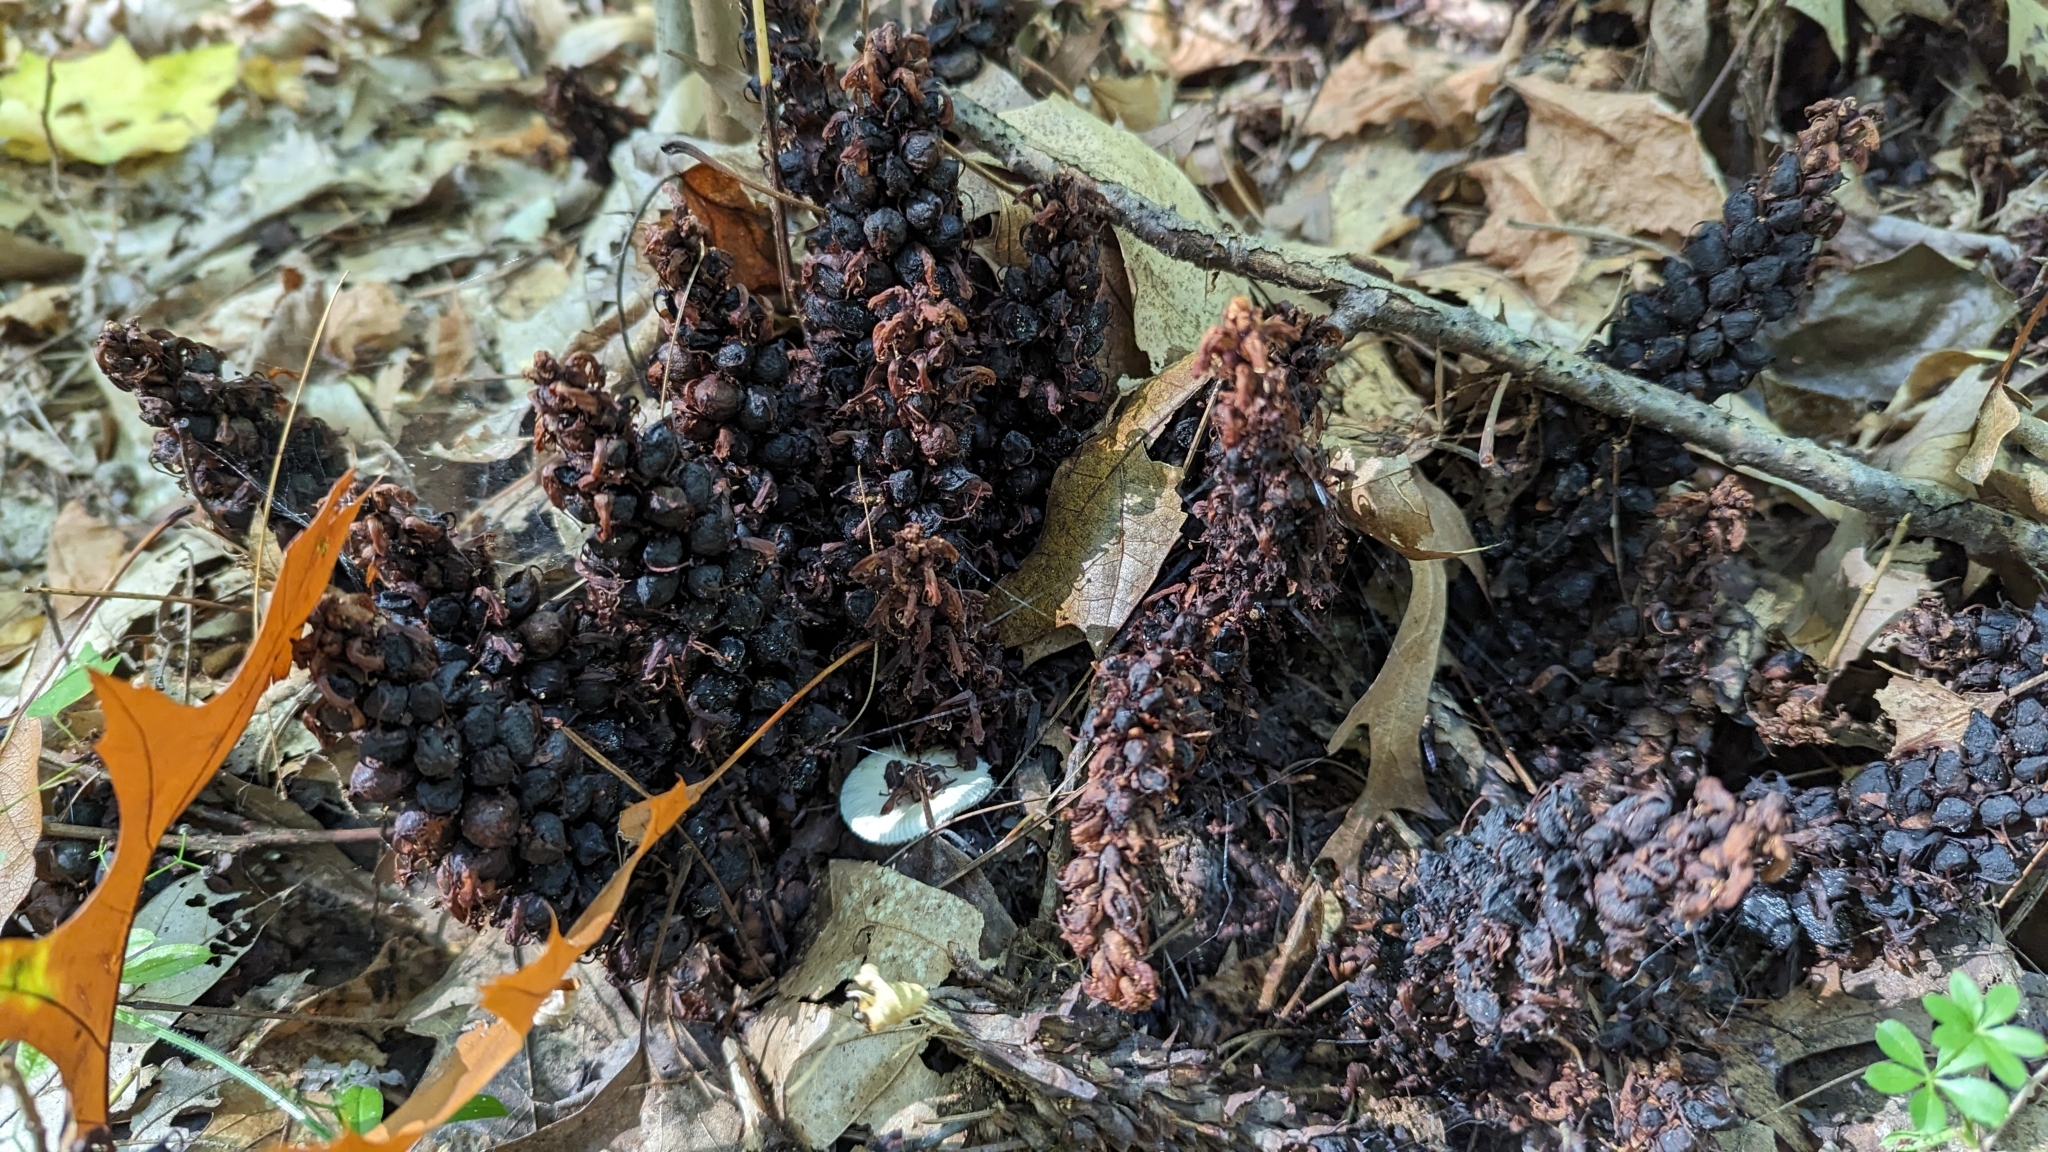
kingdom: Plantae
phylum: Tracheophyta
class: Magnoliopsida
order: Lamiales
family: Orobanchaceae
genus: Conopholis
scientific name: Conopholis americana
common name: American cancer-root
